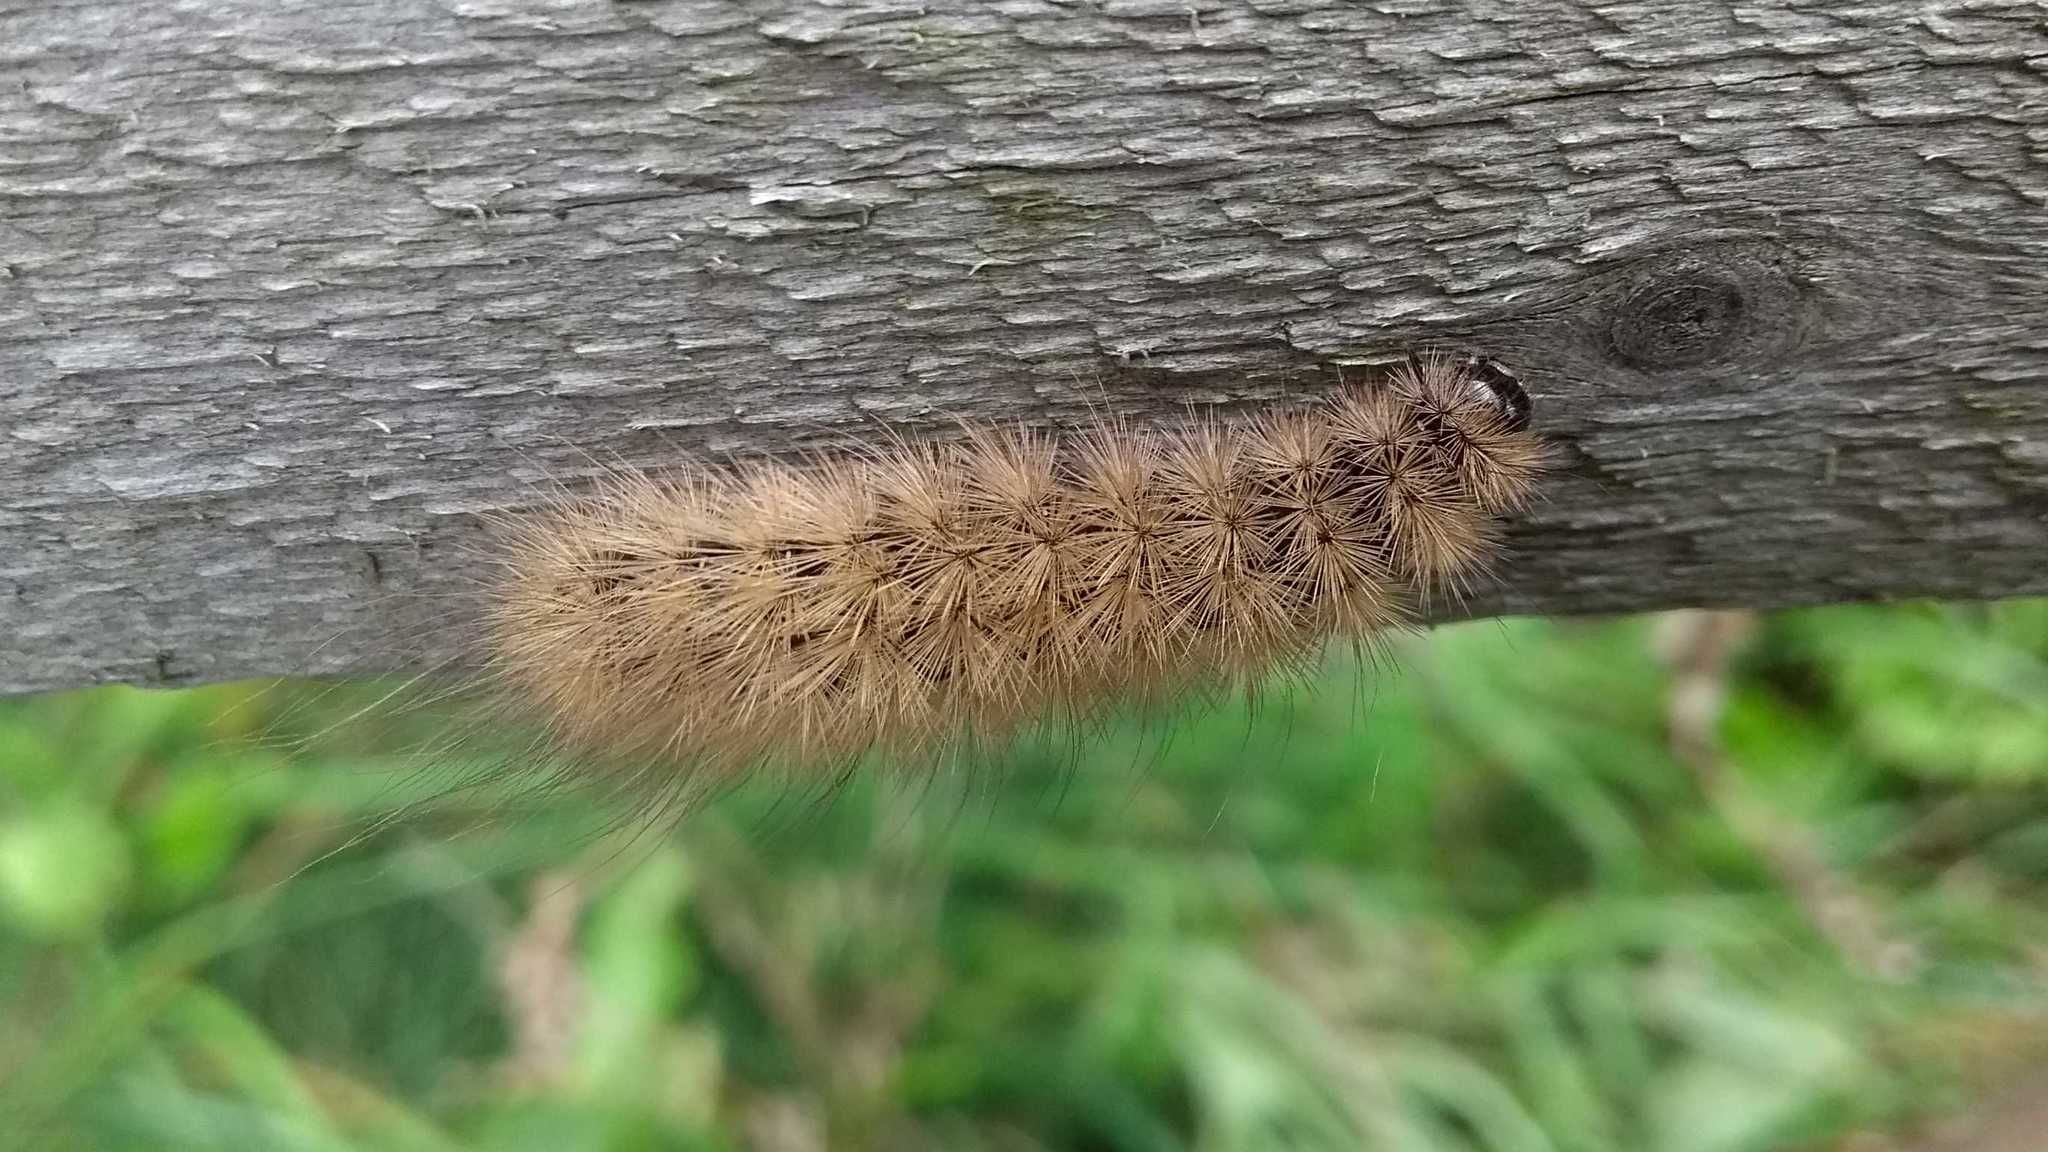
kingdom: Animalia
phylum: Arthropoda
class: Insecta
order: Lepidoptera
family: Erebidae
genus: Phragmatobia
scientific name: Phragmatobia fuliginosa
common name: Ruby tiger
